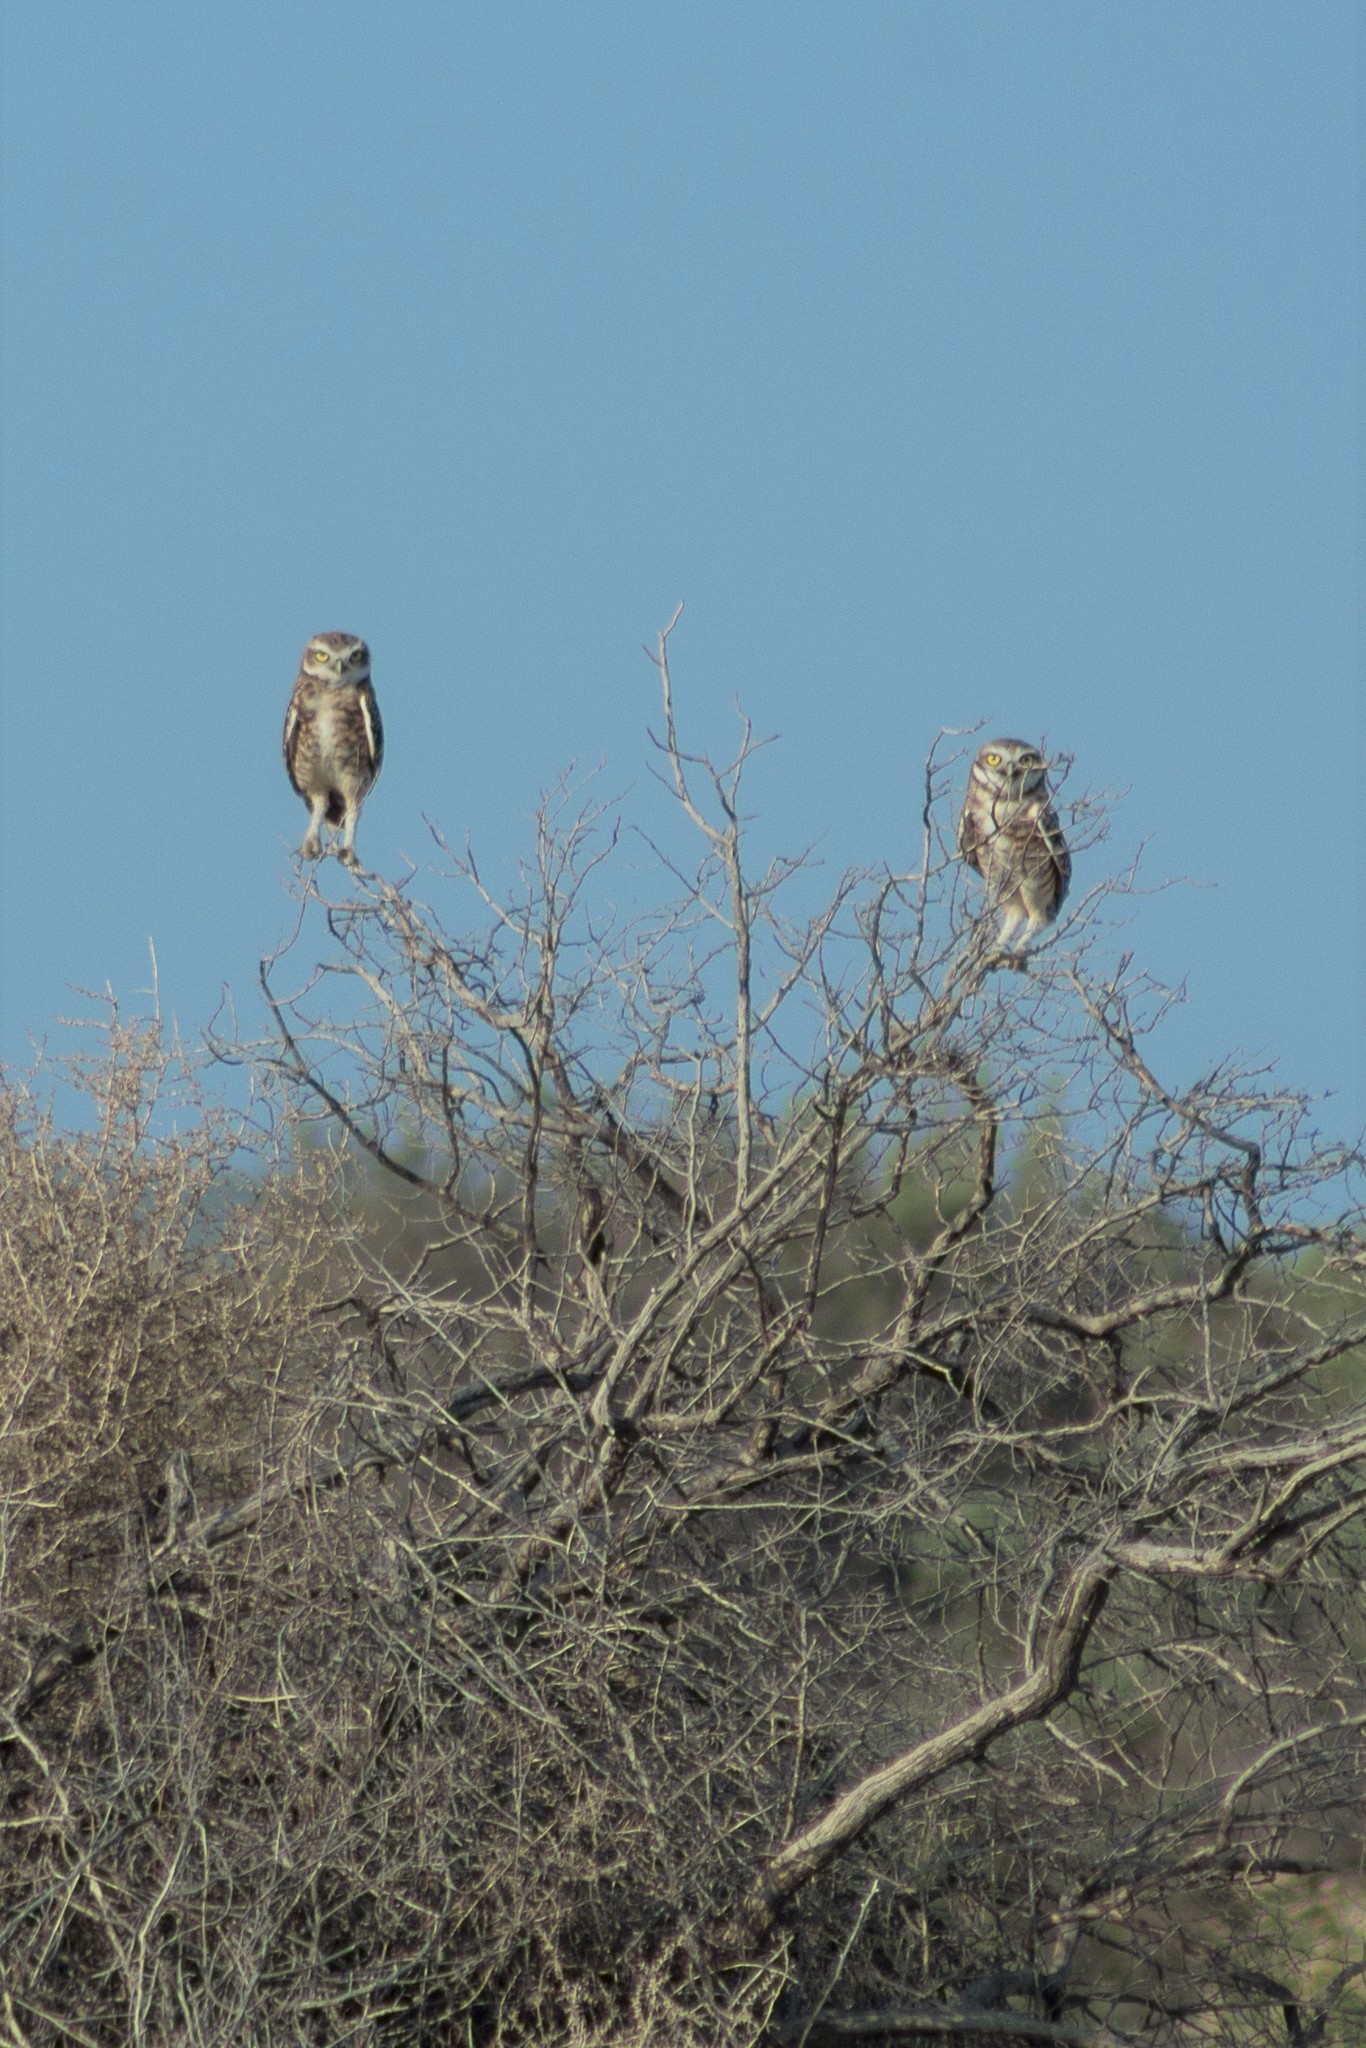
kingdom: Animalia
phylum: Chordata
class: Aves
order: Strigiformes
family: Strigidae
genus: Athene
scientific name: Athene cunicularia
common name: Burrowing owl
